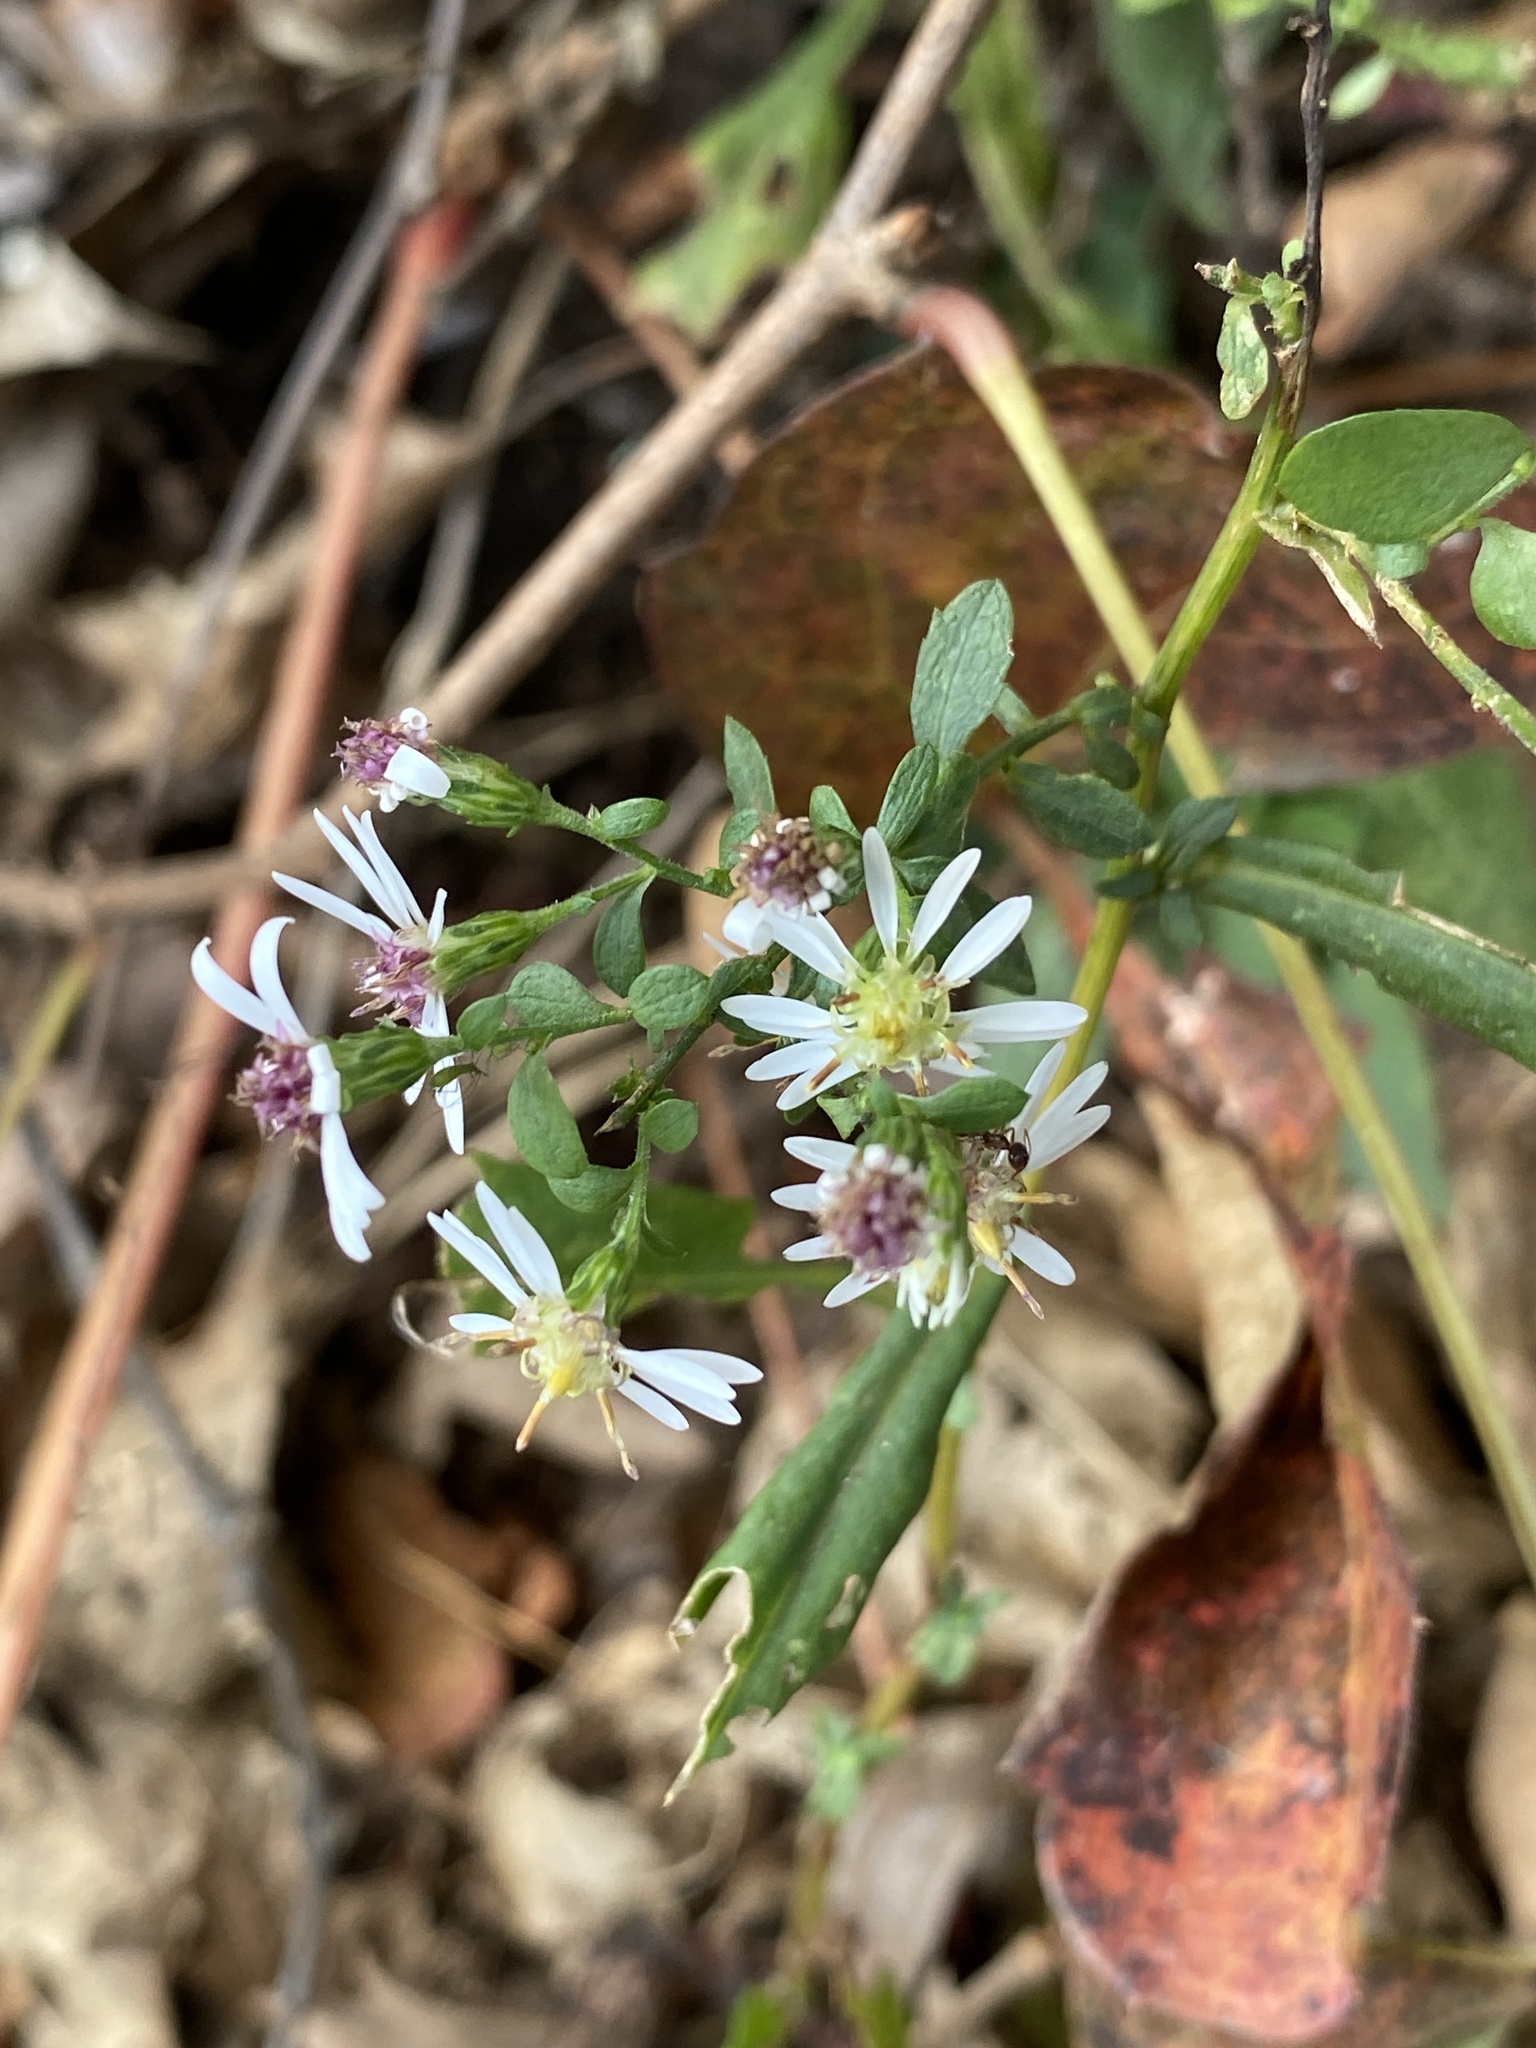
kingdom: Plantae
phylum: Tracheophyta
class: Magnoliopsida
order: Asterales
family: Asteraceae
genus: Symphyotrichum
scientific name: Symphyotrichum lateriflorum
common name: Calico aster
